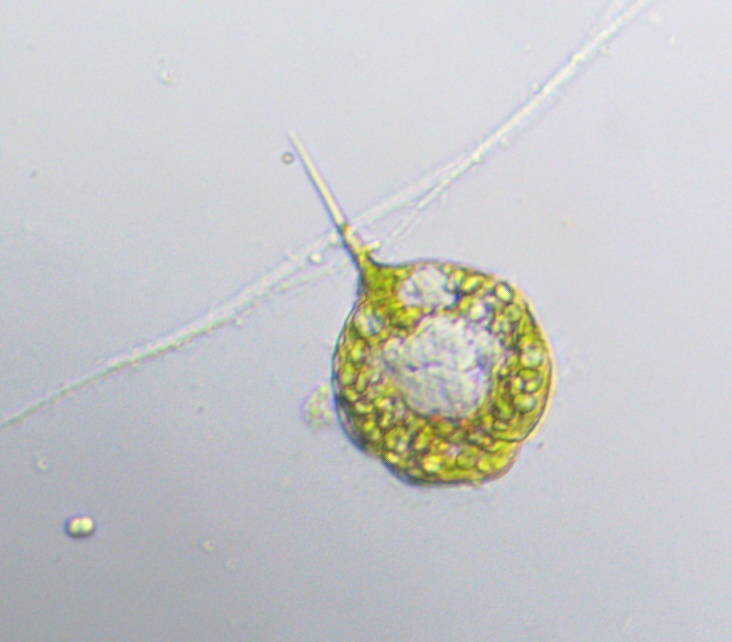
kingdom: Protozoa
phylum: Euglenozoa
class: Euglenoidea
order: Euglenida
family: Phacidae
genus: Phacus
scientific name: Phacus tortus
